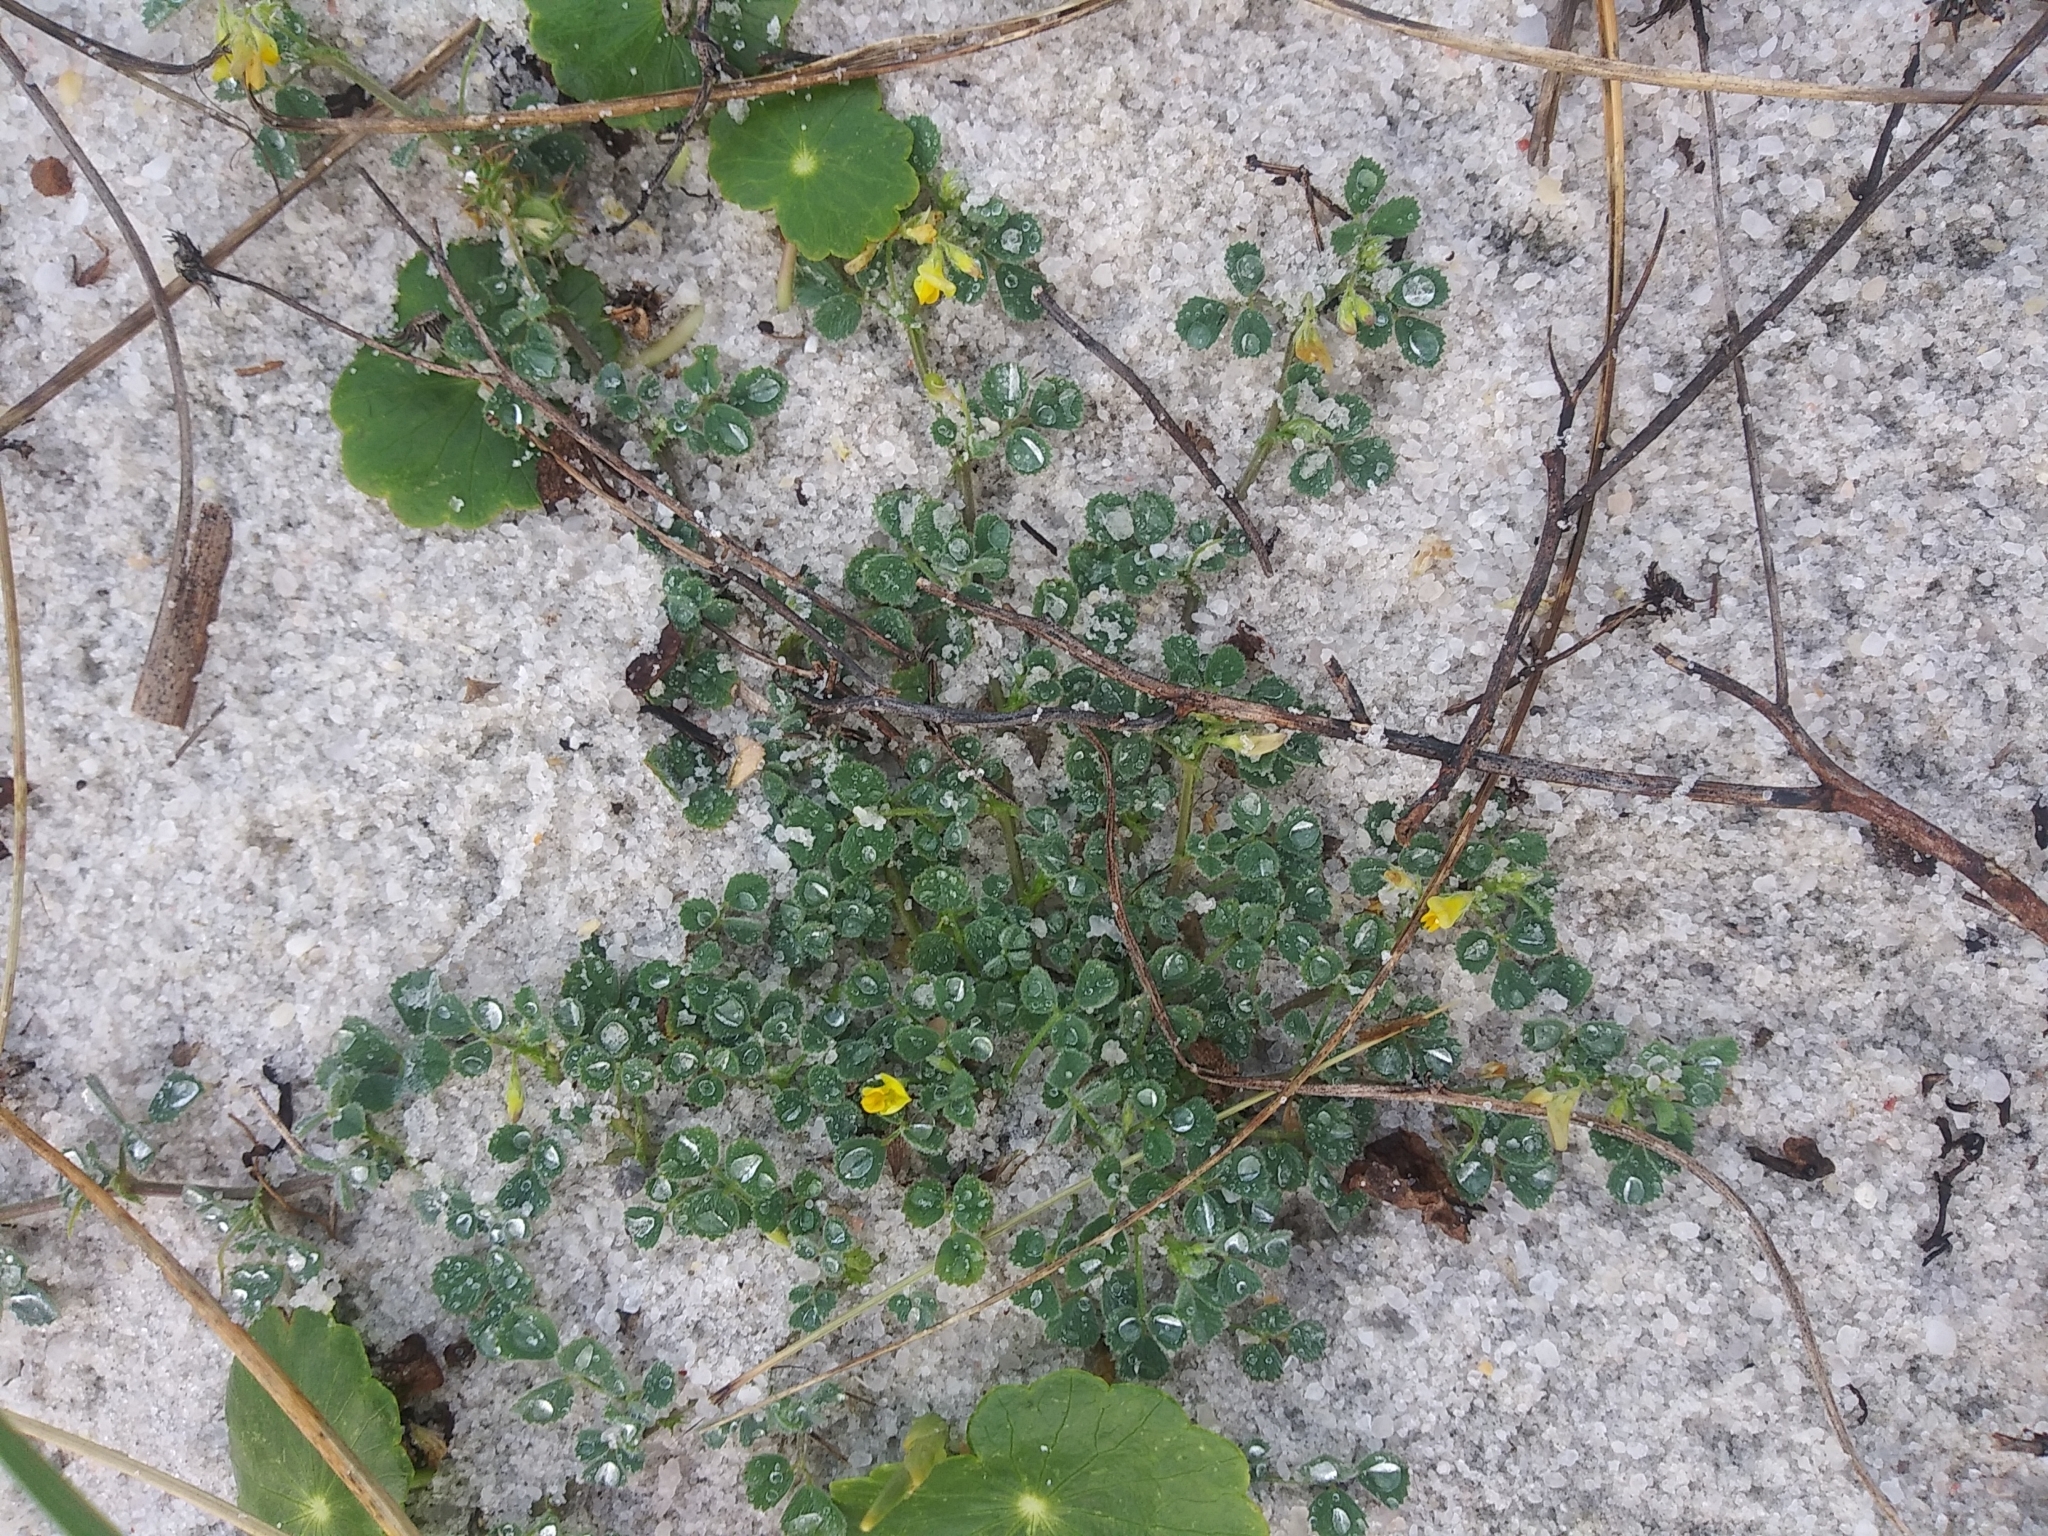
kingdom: Plantae
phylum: Tracheophyta
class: Magnoliopsida
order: Fabales
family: Fabaceae
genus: Medicago
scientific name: Medicago littoralis
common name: Shore medick
